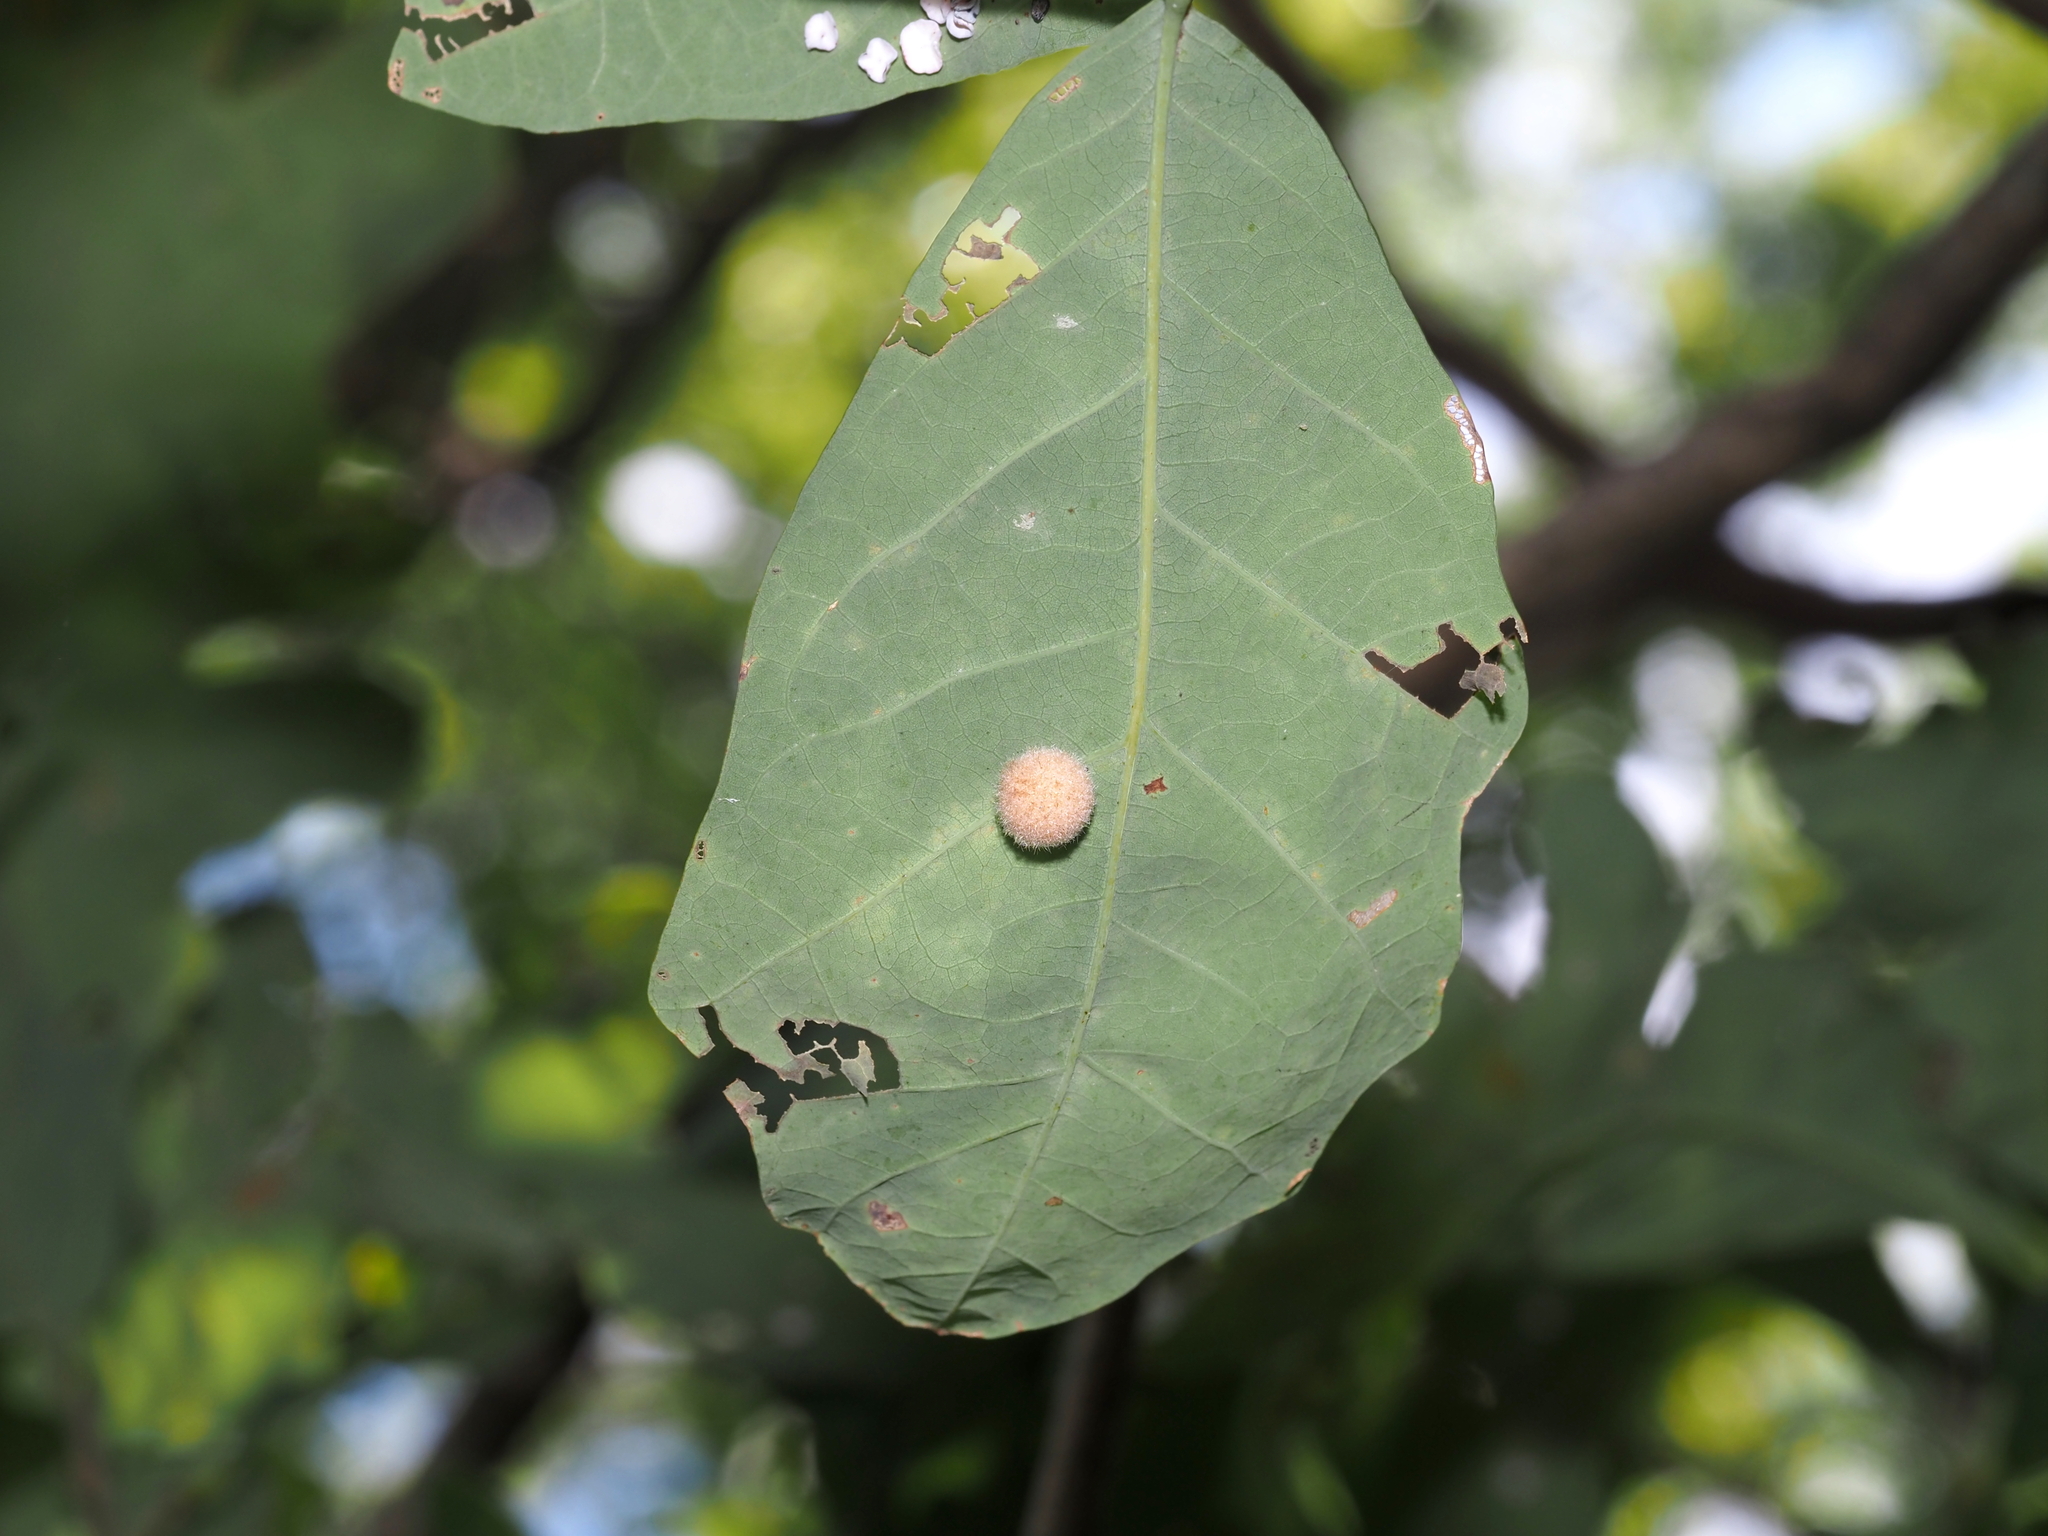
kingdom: Animalia
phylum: Arthropoda
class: Insecta
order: Hymenoptera
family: Cynipidae
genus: Philonix
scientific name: Philonix fulvicollis
